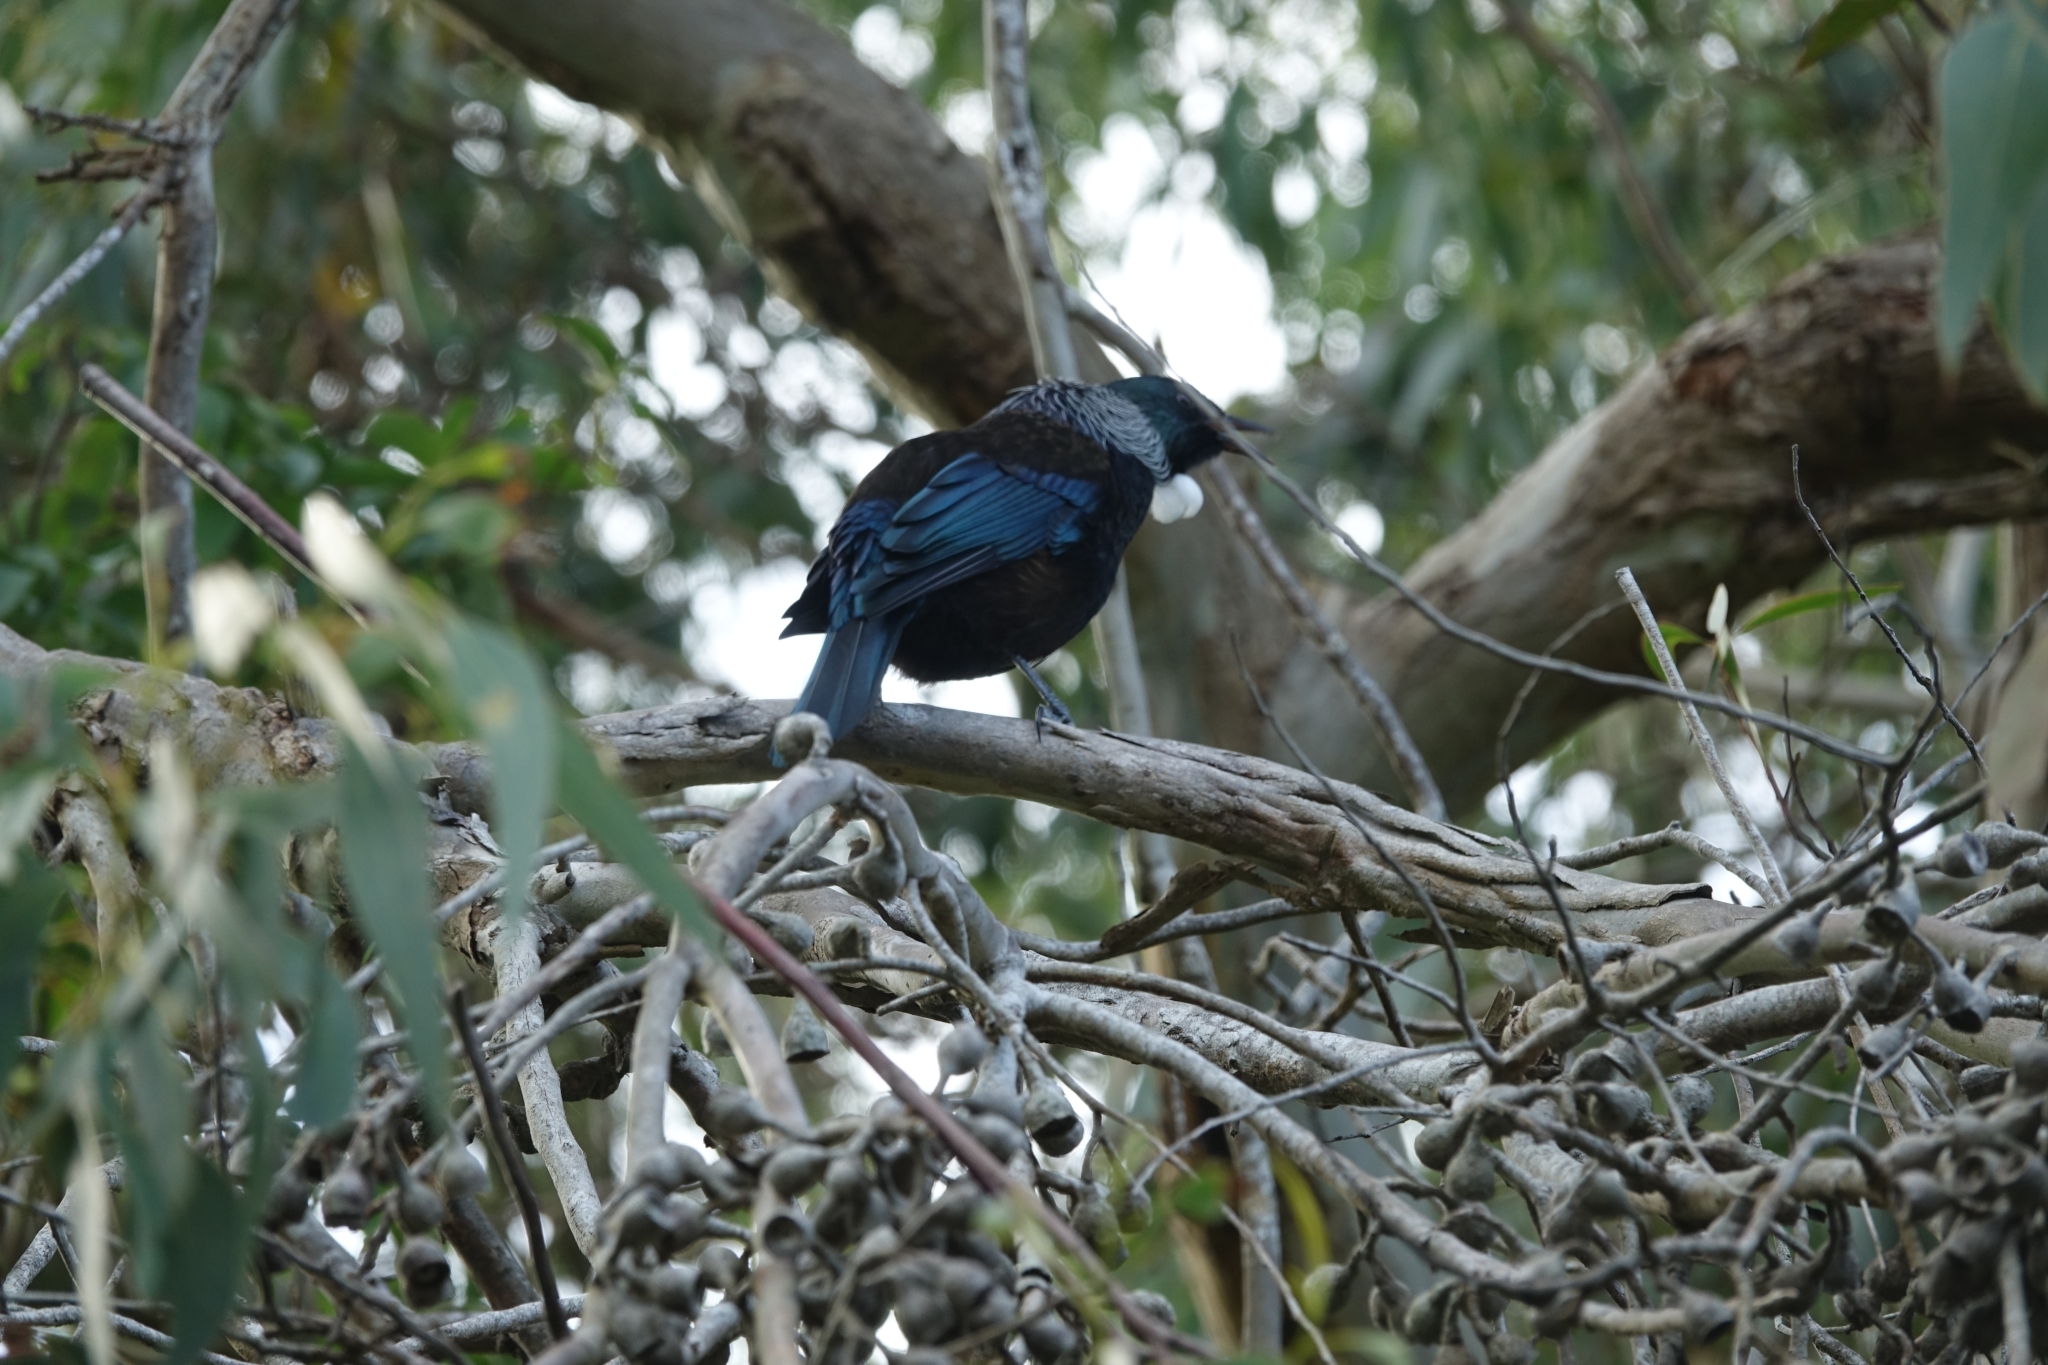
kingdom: Animalia
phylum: Chordata
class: Aves
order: Passeriformes
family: Meliphagidae
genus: Prosthemadera
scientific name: Prosthemadera novaeseelandiae
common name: Tui
